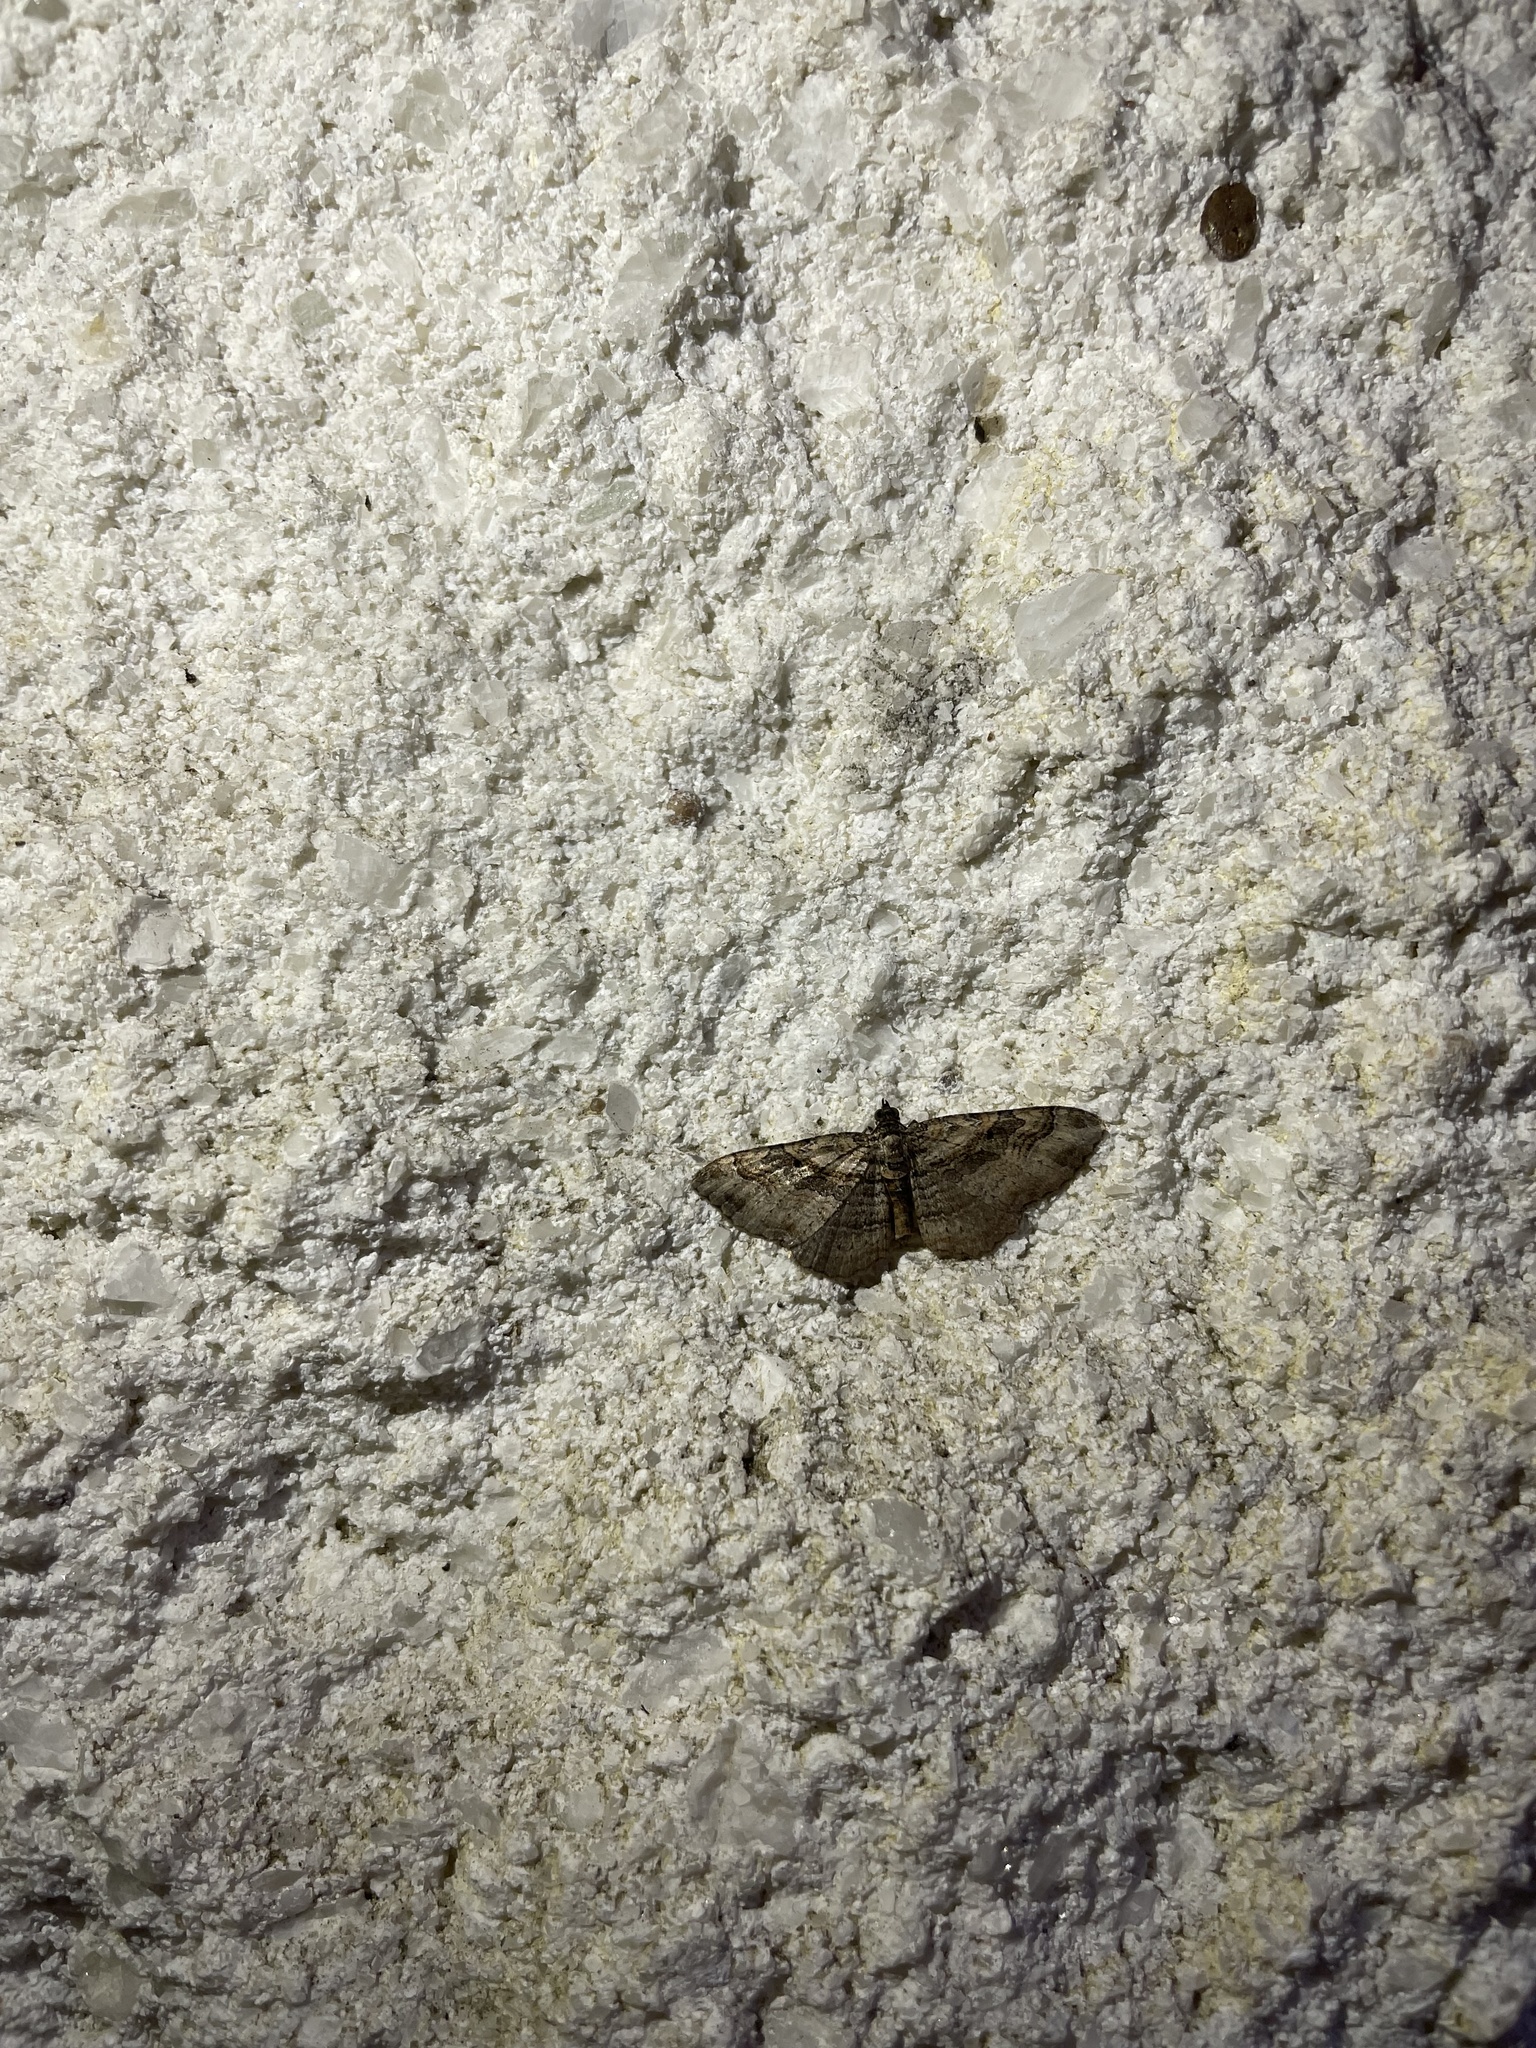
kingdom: Animalia
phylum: Arthropoda
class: Insecta
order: Lepidoptera
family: Geometridae
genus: Costaconvexa
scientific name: Costaconvexa centrostrigaria
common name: Bent-line carpet
